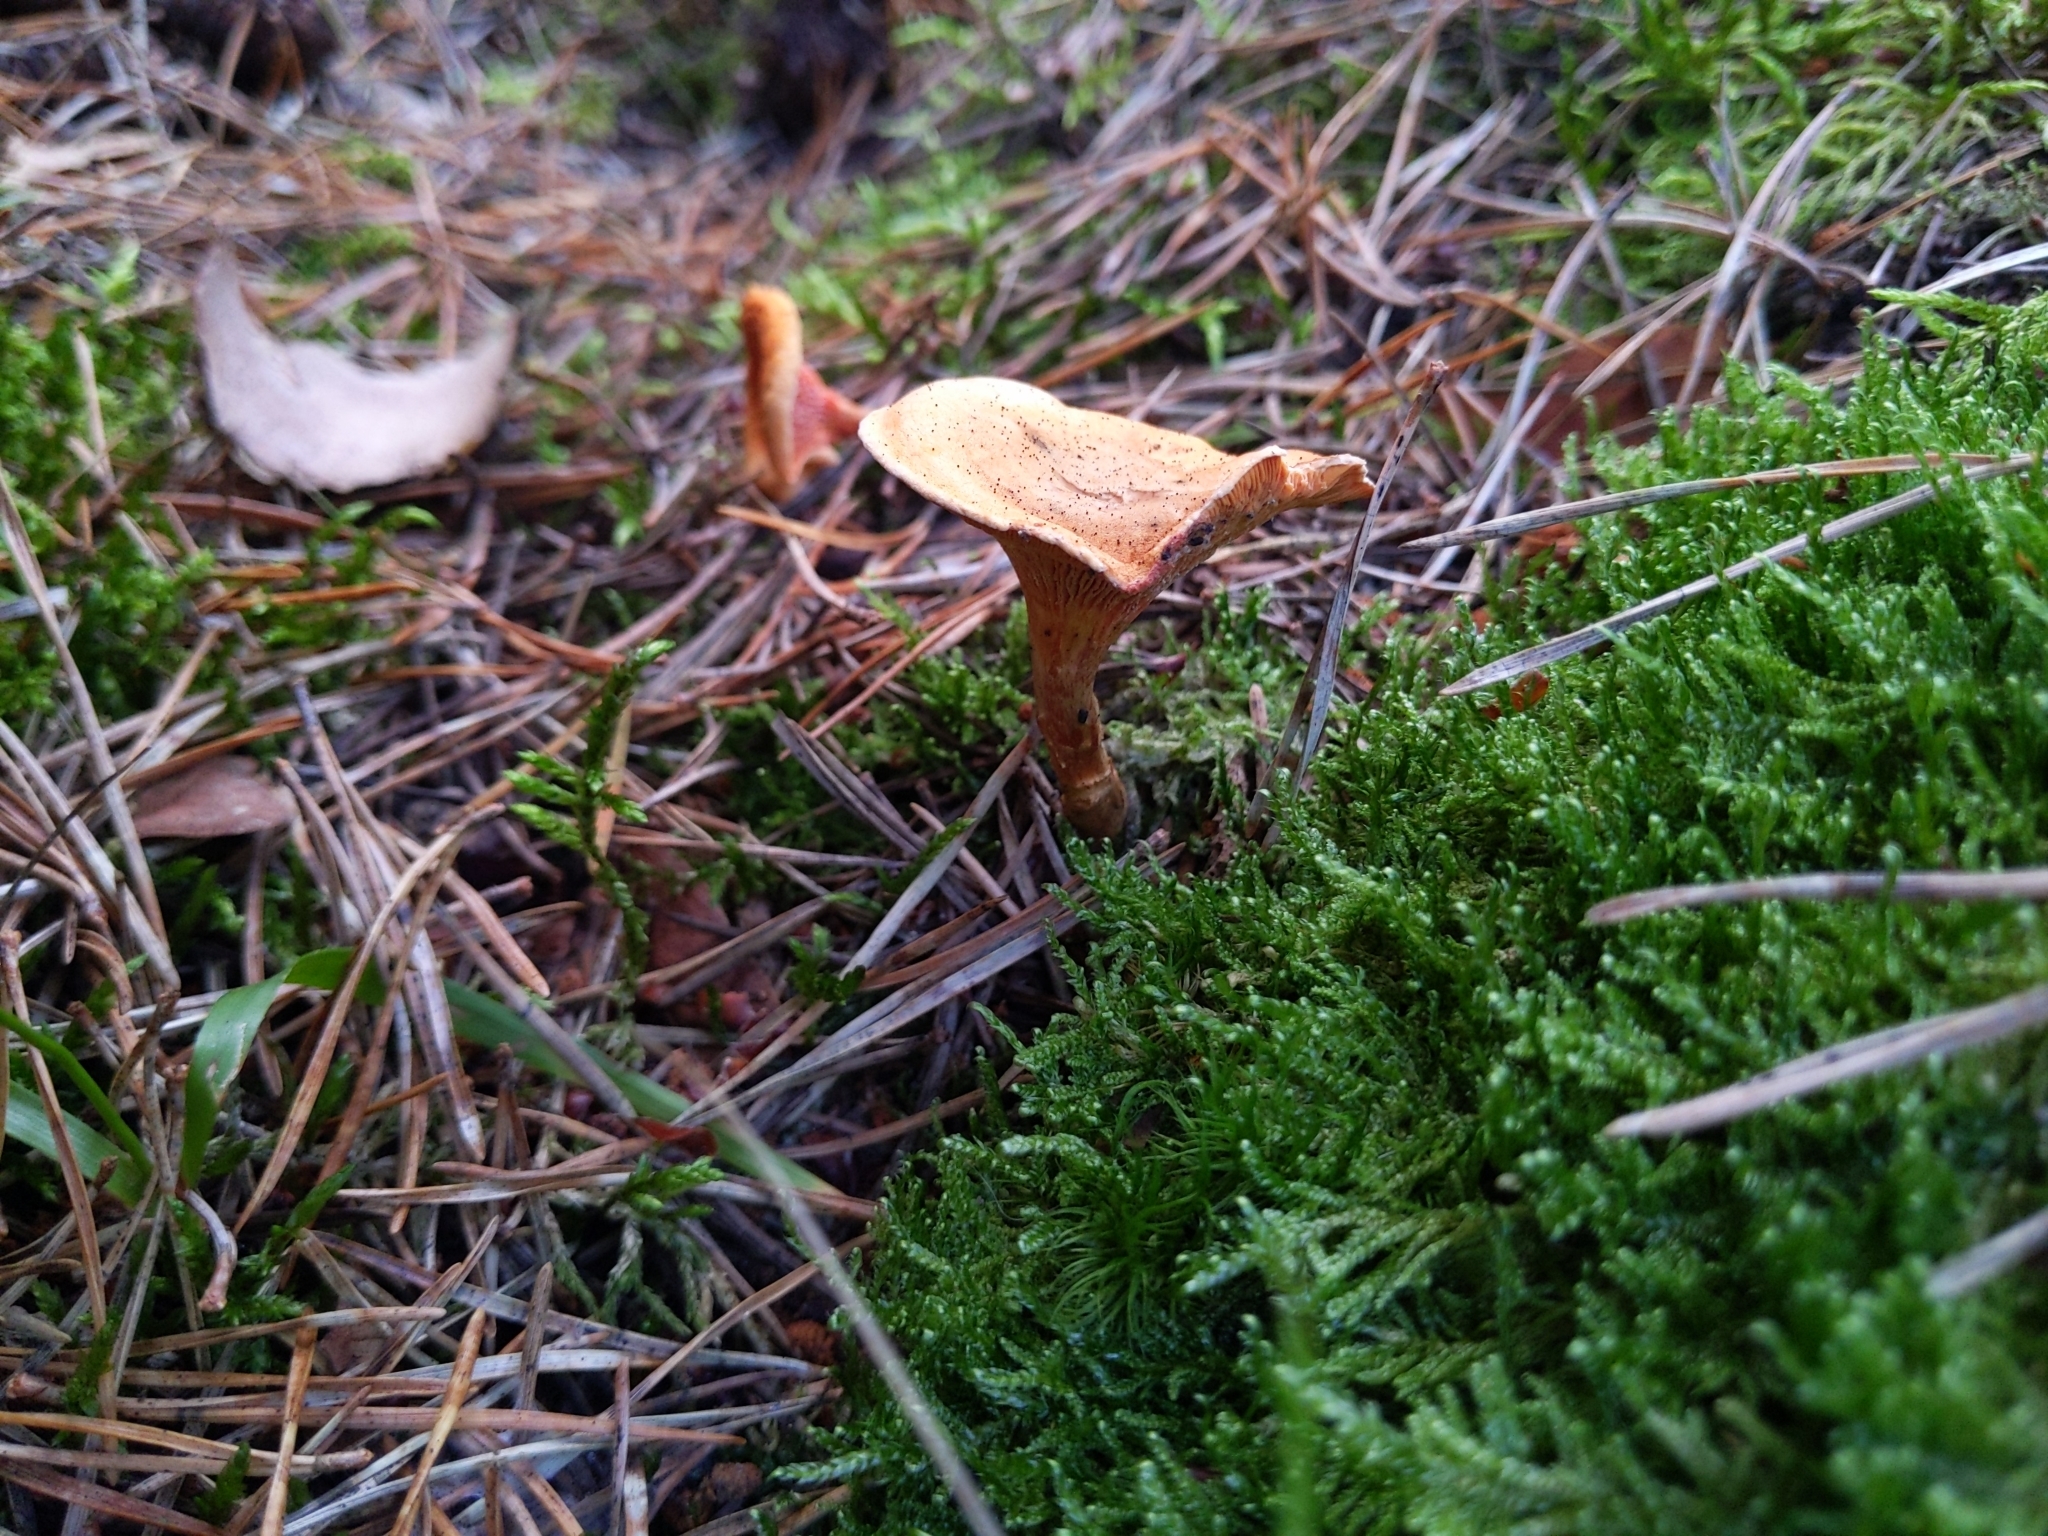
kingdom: Fungi
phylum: Basidiomycota
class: Agaricomycetes
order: Boletales
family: Hygrophoropsidaceae
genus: Hygrophoropsis
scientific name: Hygrophoropsis aurantiaca
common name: False chanterelle
